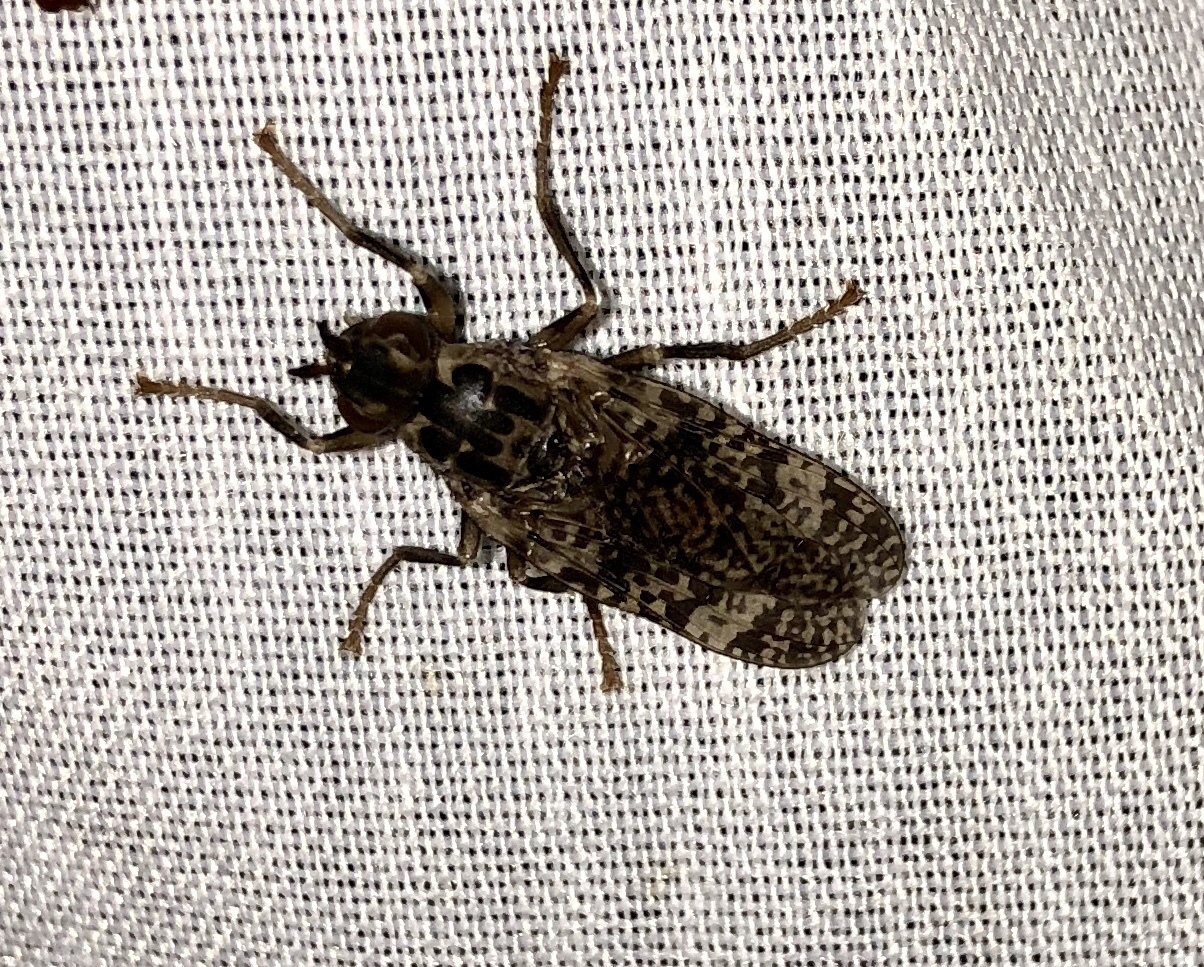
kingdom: Animalia
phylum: Arthropoda
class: Insecta
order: Diptera
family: Pyrgotidae
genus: Pyrgota
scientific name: Pyrgota valida
